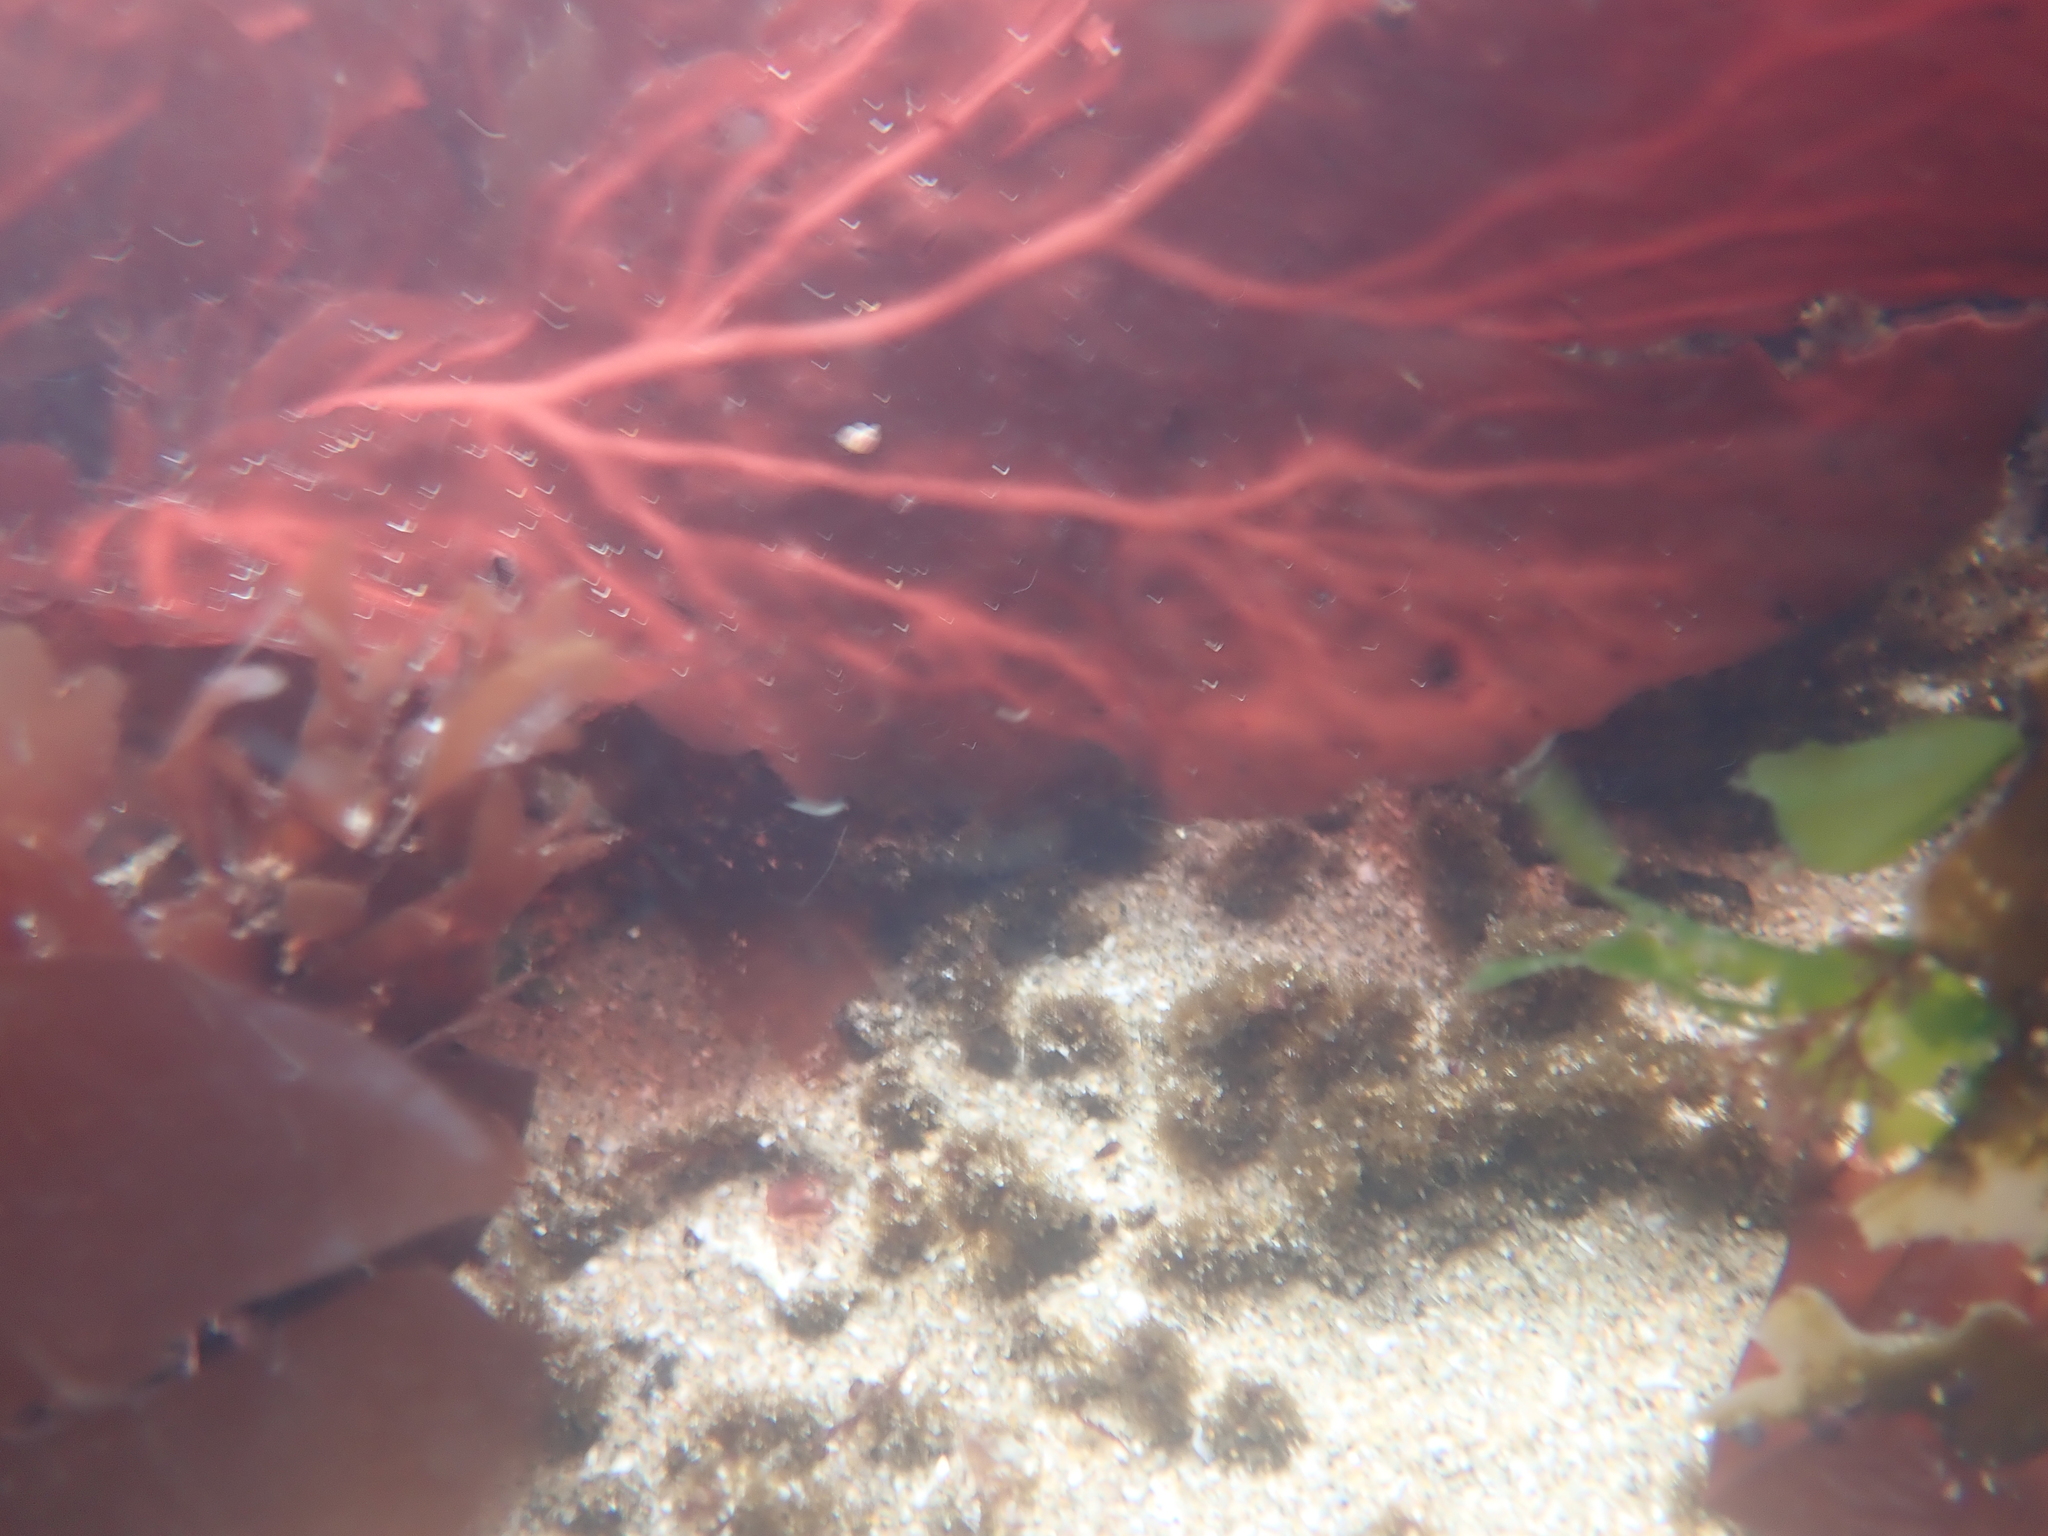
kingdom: Plantae
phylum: Rhodophyta
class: Florideophyceae
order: Gigartinales
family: Kallymeniaceae
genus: Erythrophyllum
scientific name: Erythrophyllum delesserioides
